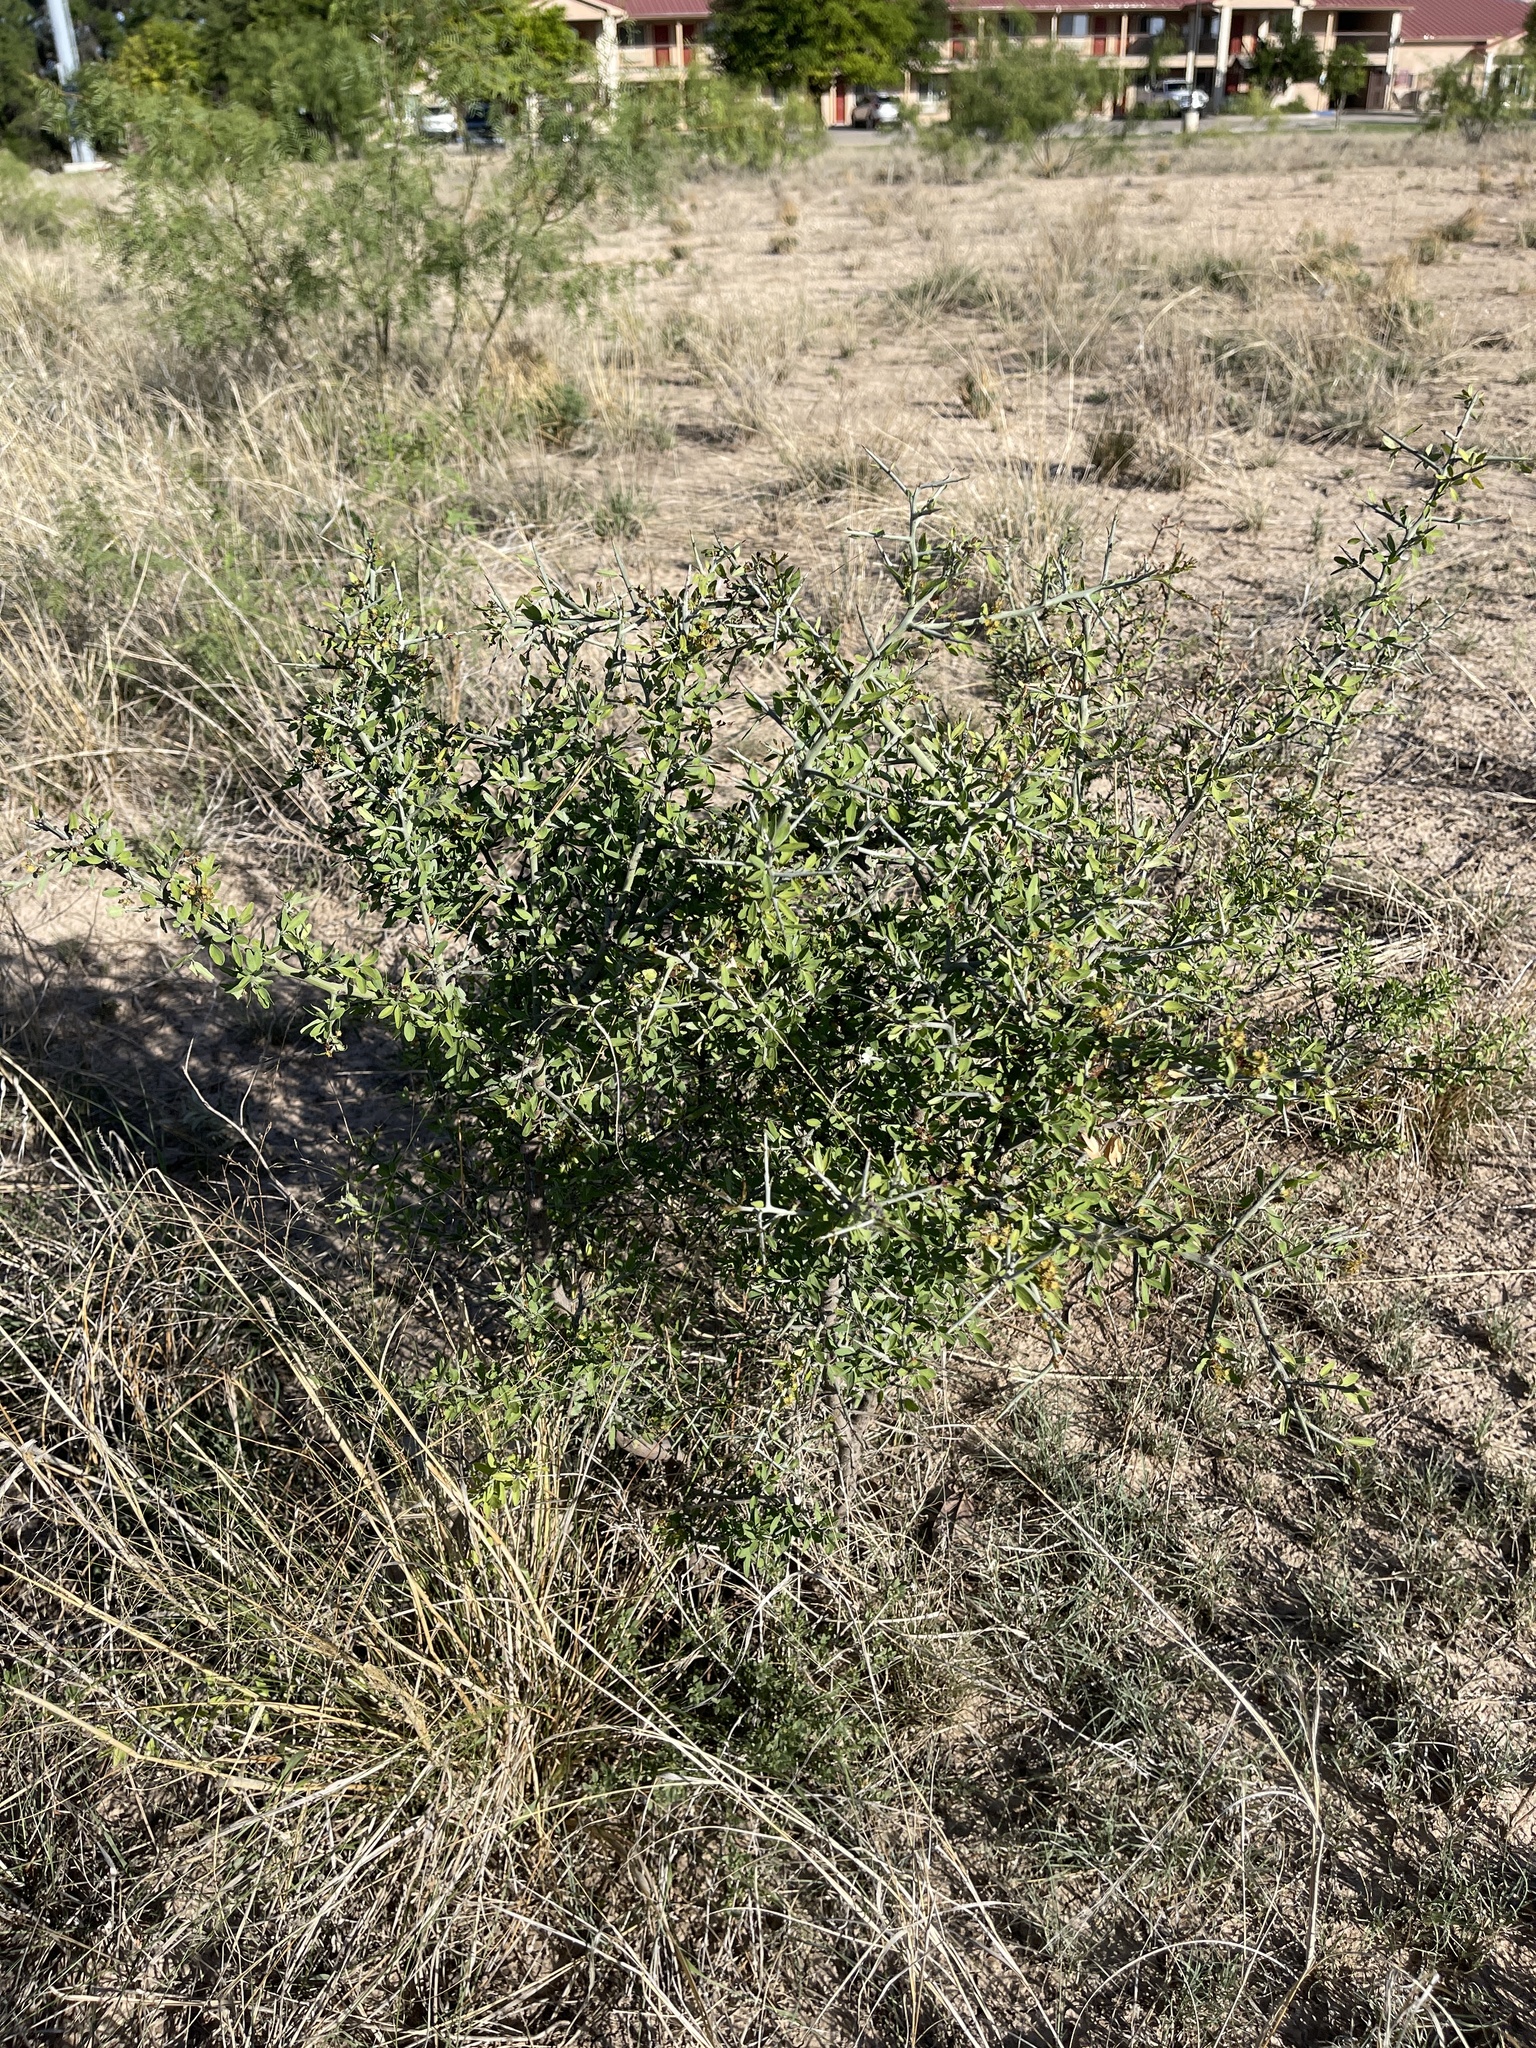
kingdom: Plantae
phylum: Tracheophyta
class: Magnoliopsida
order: Rosales
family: Rhamnaceae
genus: Sarcomphalus
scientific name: Sarcomphalus obtusifolius
